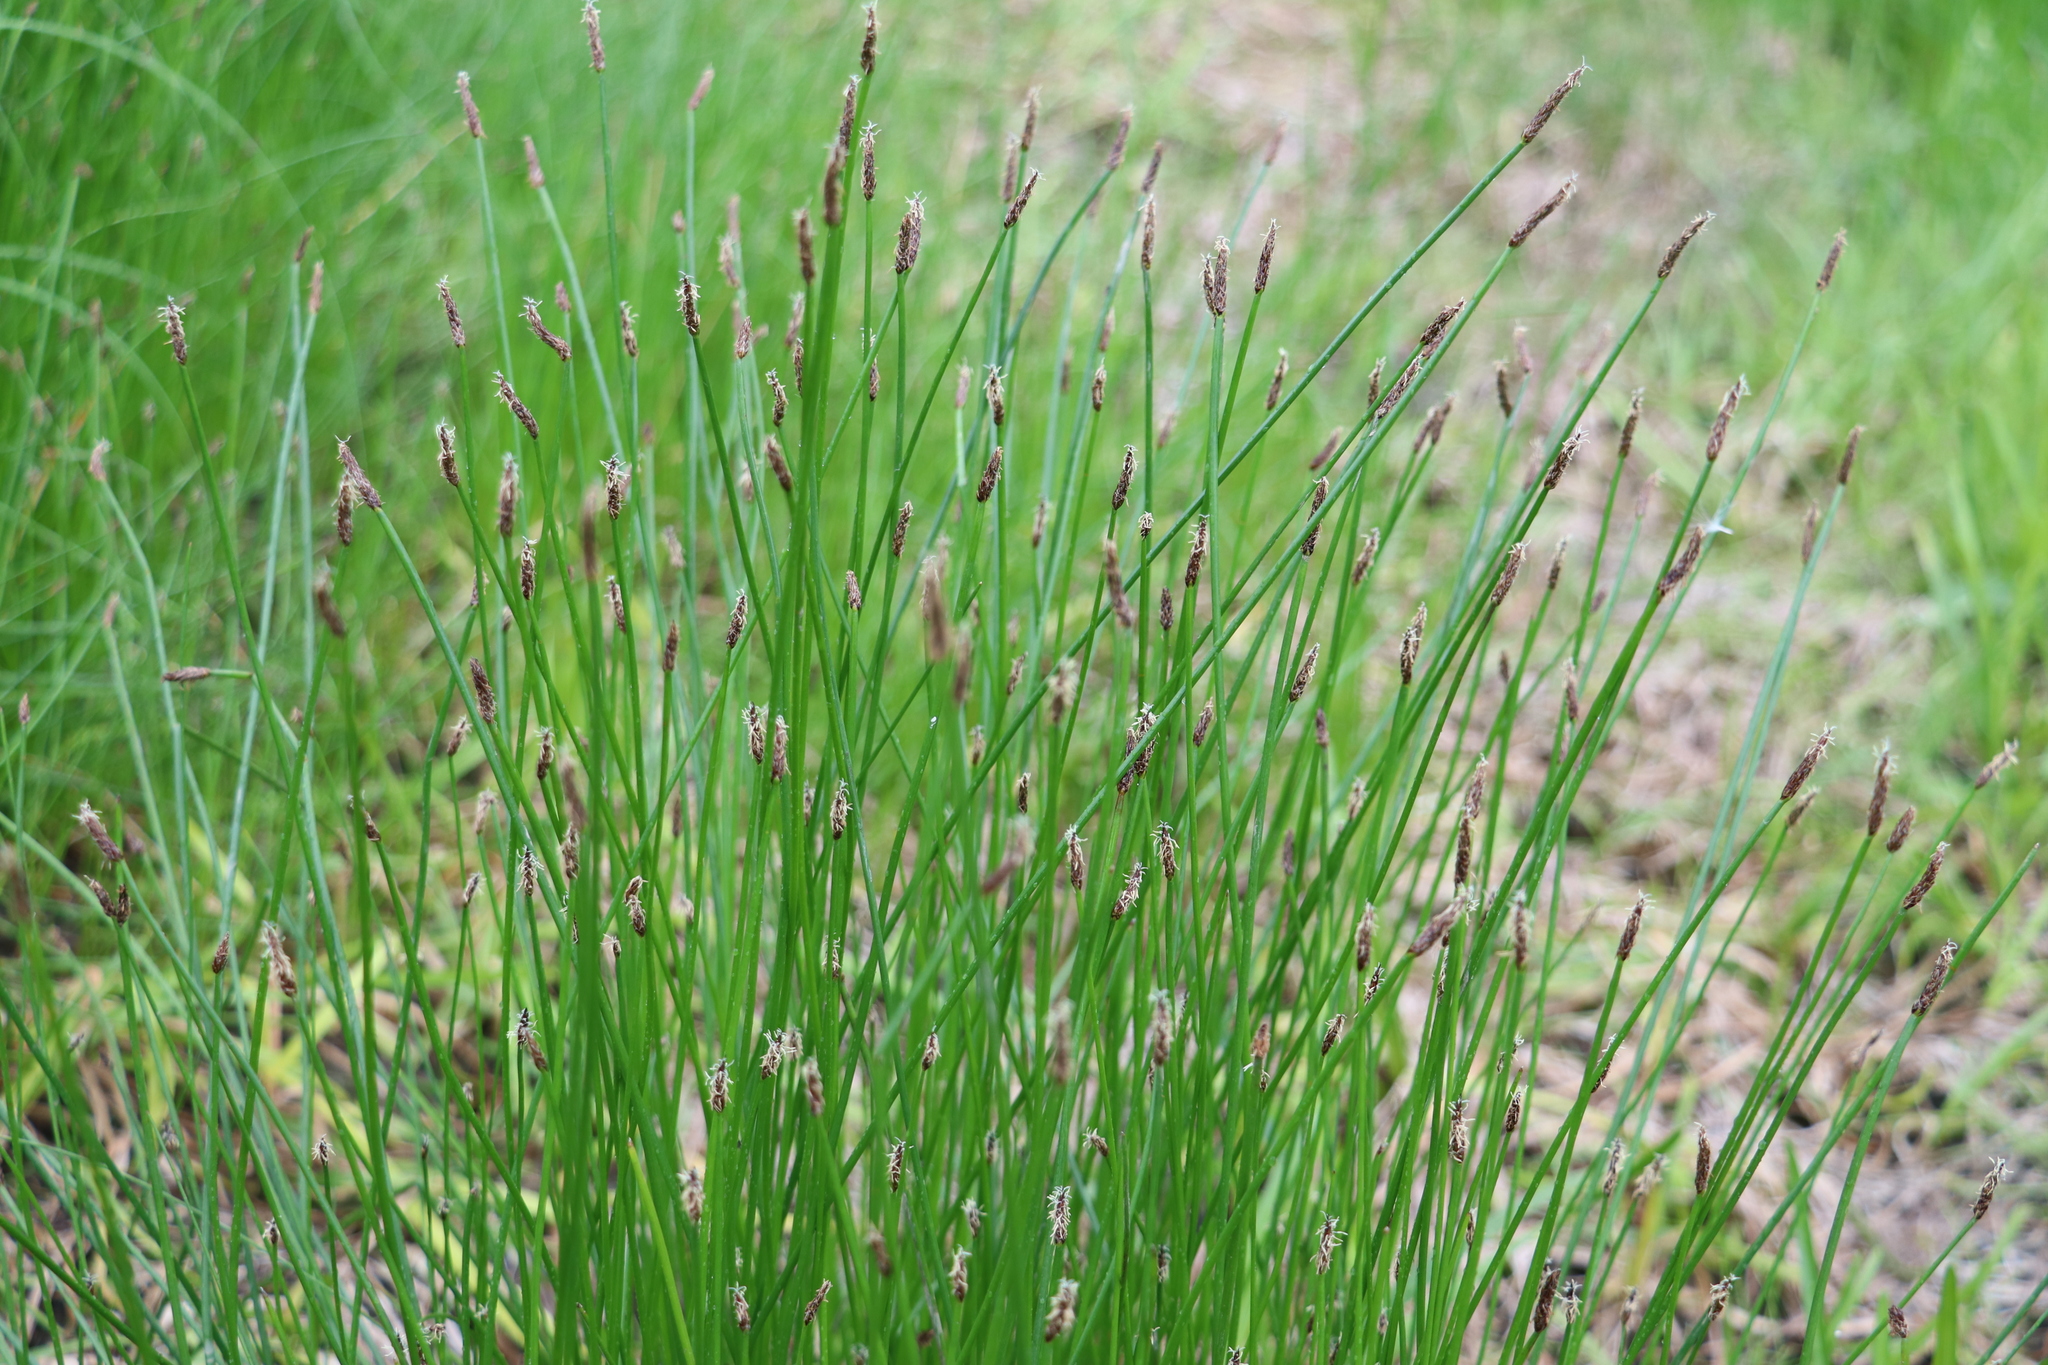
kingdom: Plantae
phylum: Tracheophyta
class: Liliopsida
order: Poales
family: Cyperaceae
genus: Eleocharis
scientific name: Eleocharis palustris
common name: Common spike-rush
